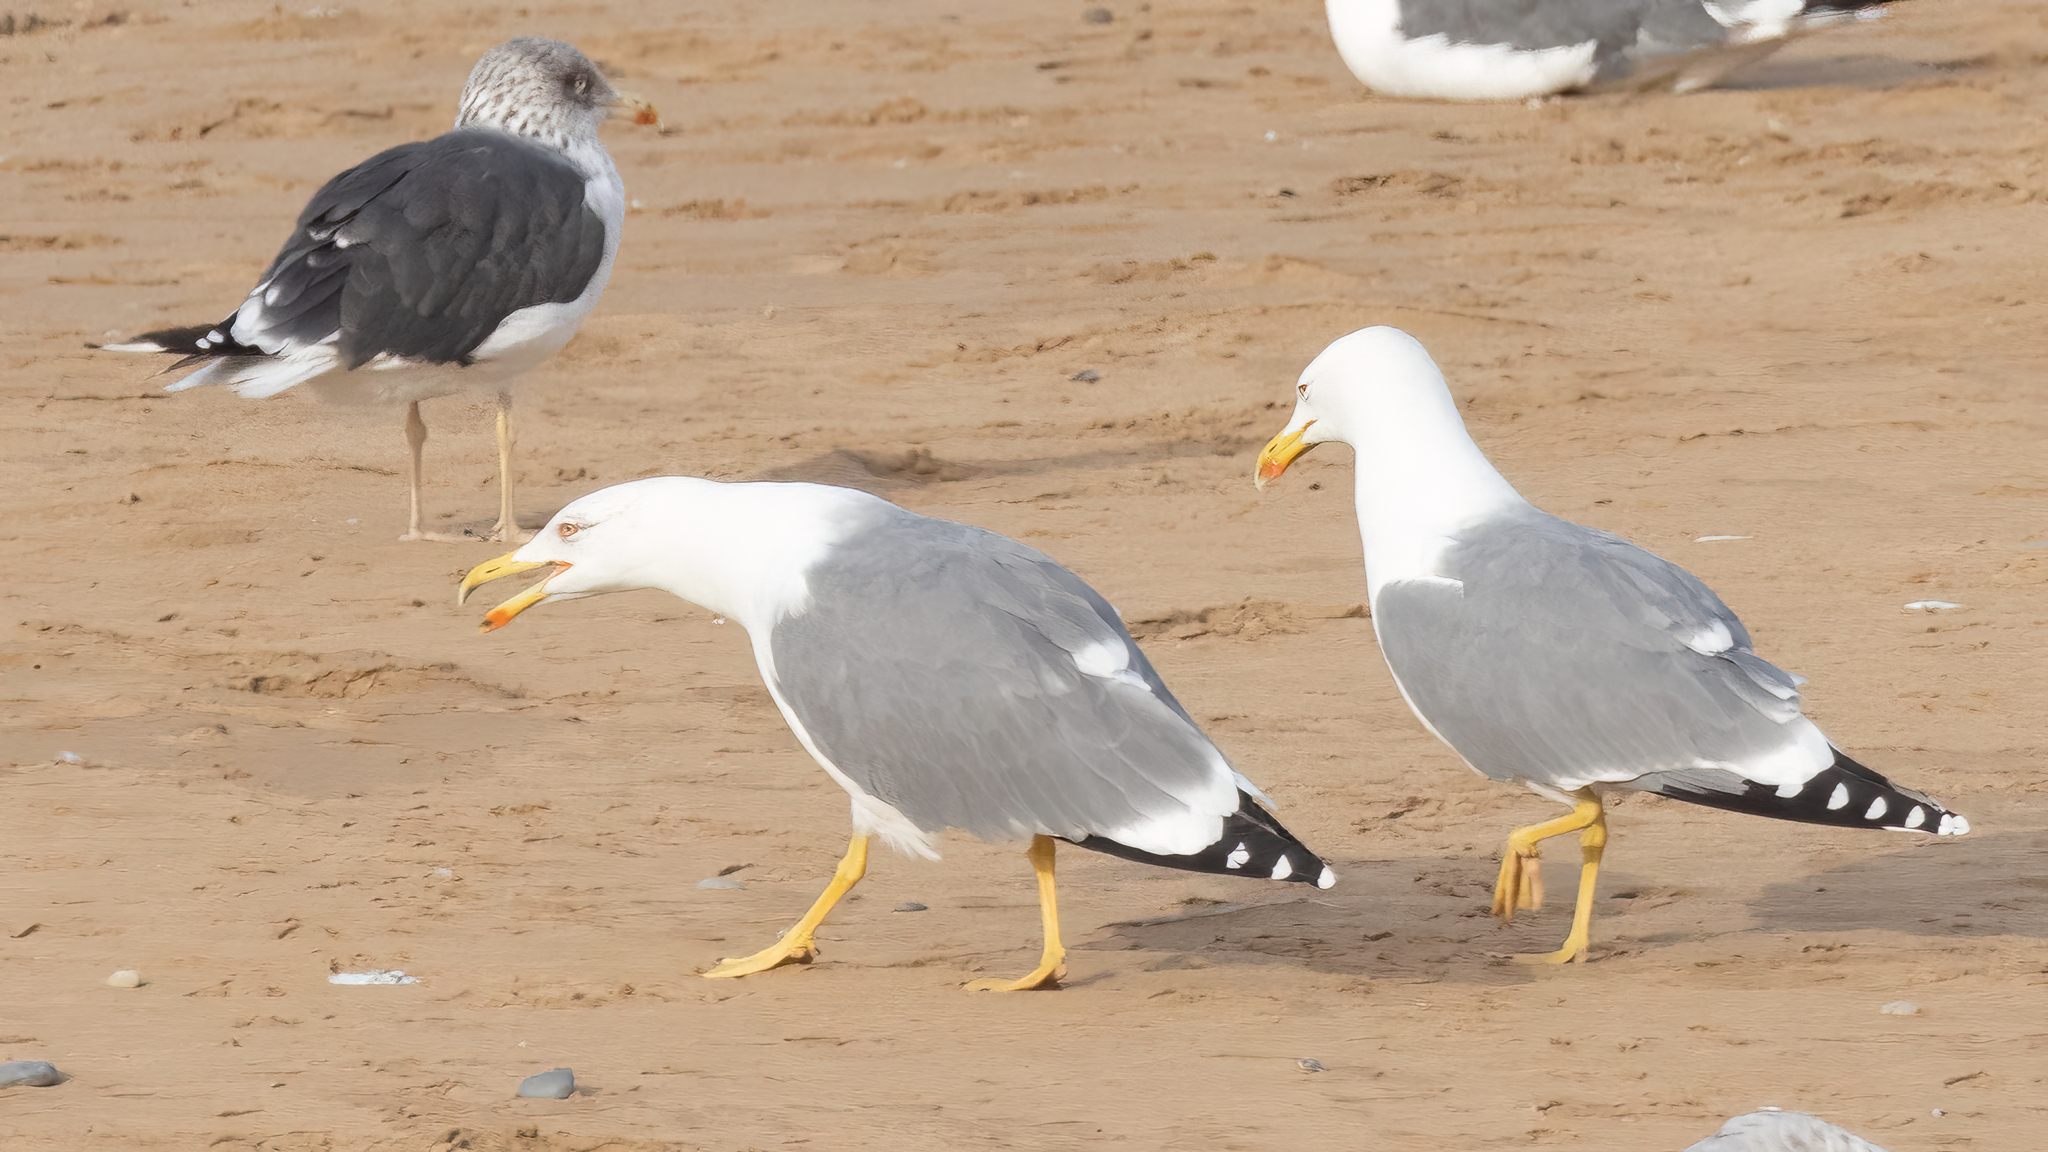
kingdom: Animalia
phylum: Chordata
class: Aves
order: Charadriiformes
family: Laridae
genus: Larus
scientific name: Larus michahellis
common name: Yellow-legged gull
